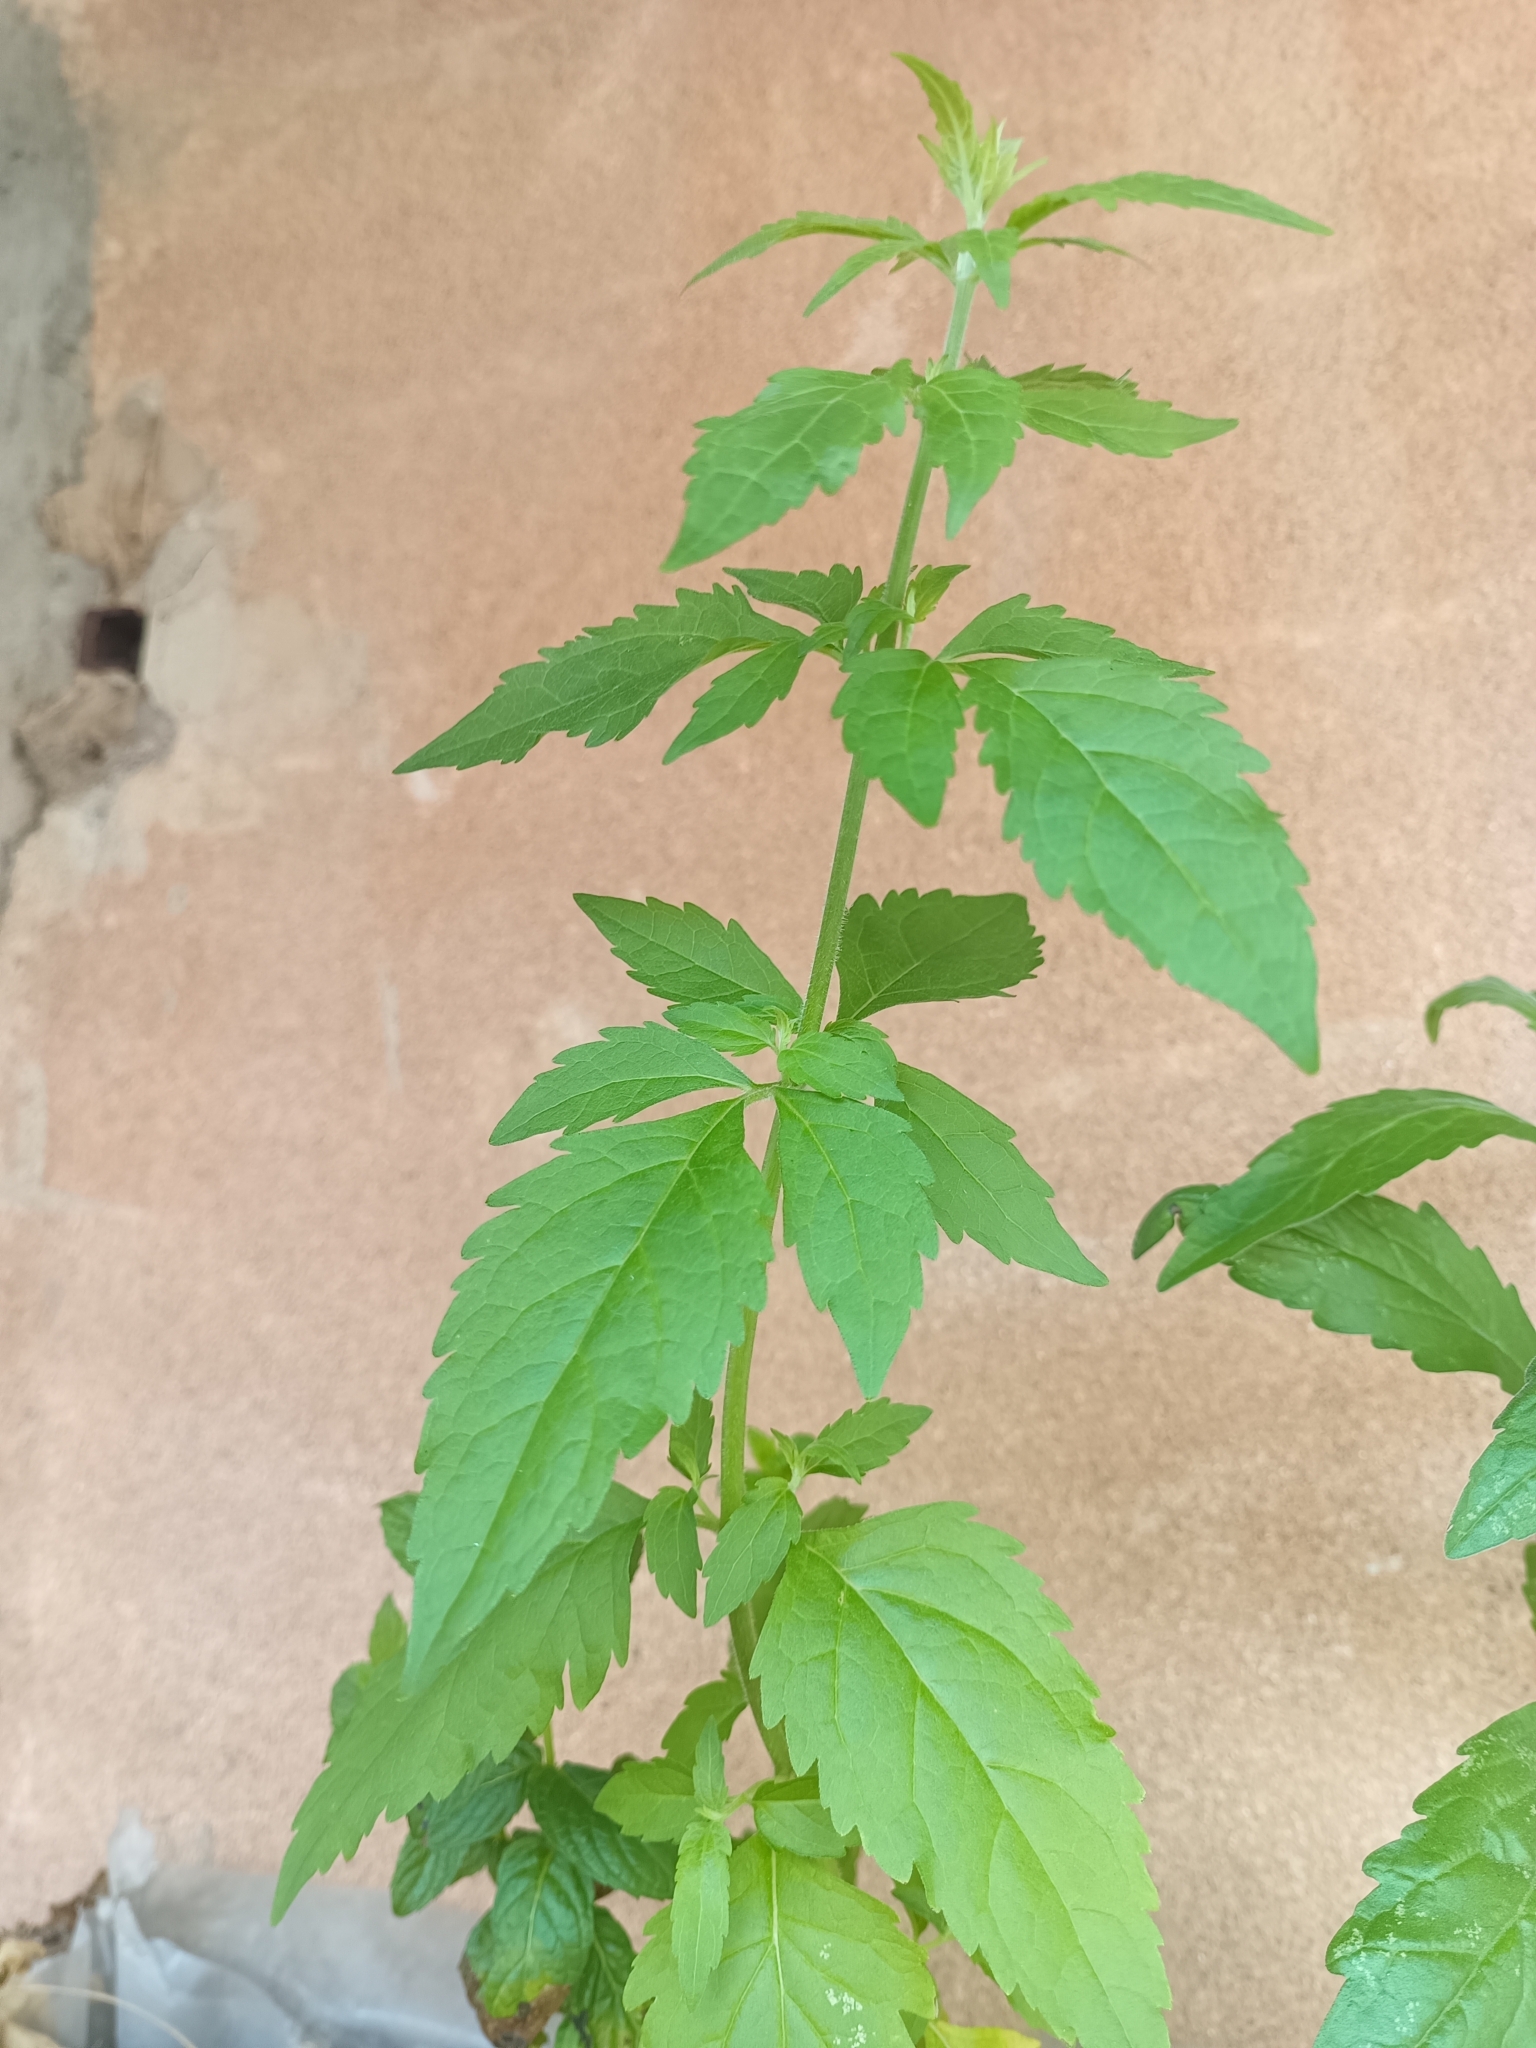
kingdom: Plantae
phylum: Tracheophyta
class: Magnoliopsida
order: Asterales
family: Asteraceae
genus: Eupatorium
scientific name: Eupatorium cannabinum
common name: Hemp-agrimony
